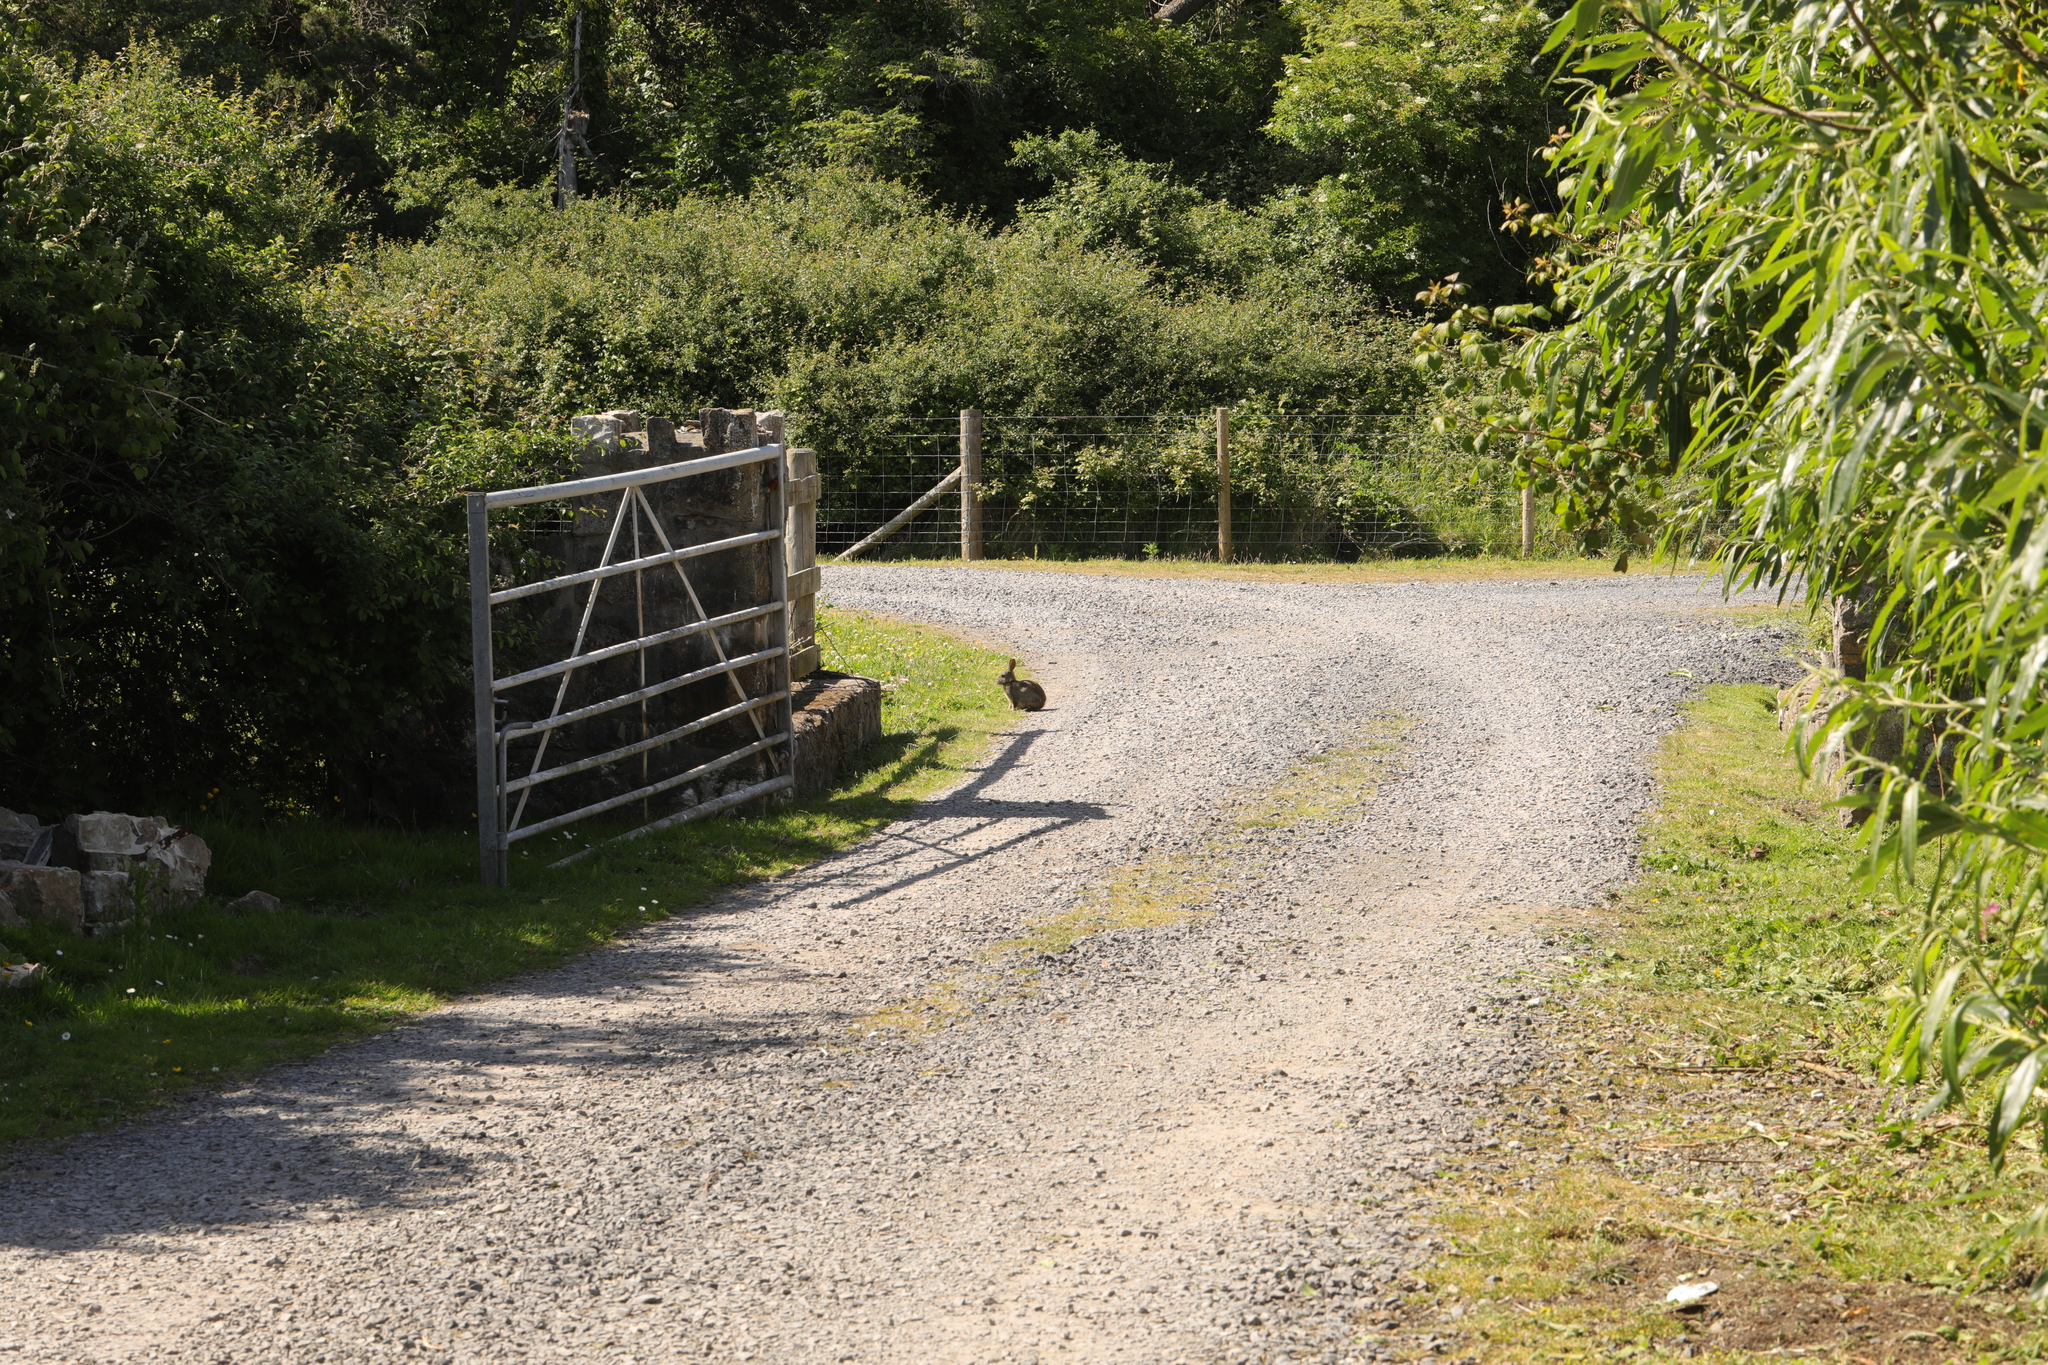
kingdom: Animalia
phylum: Chordata
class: Mammalia
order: Lagomorpha
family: Leporidae
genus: Oryctolagus
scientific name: Oryctolagus cuniculus
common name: European rabbit
